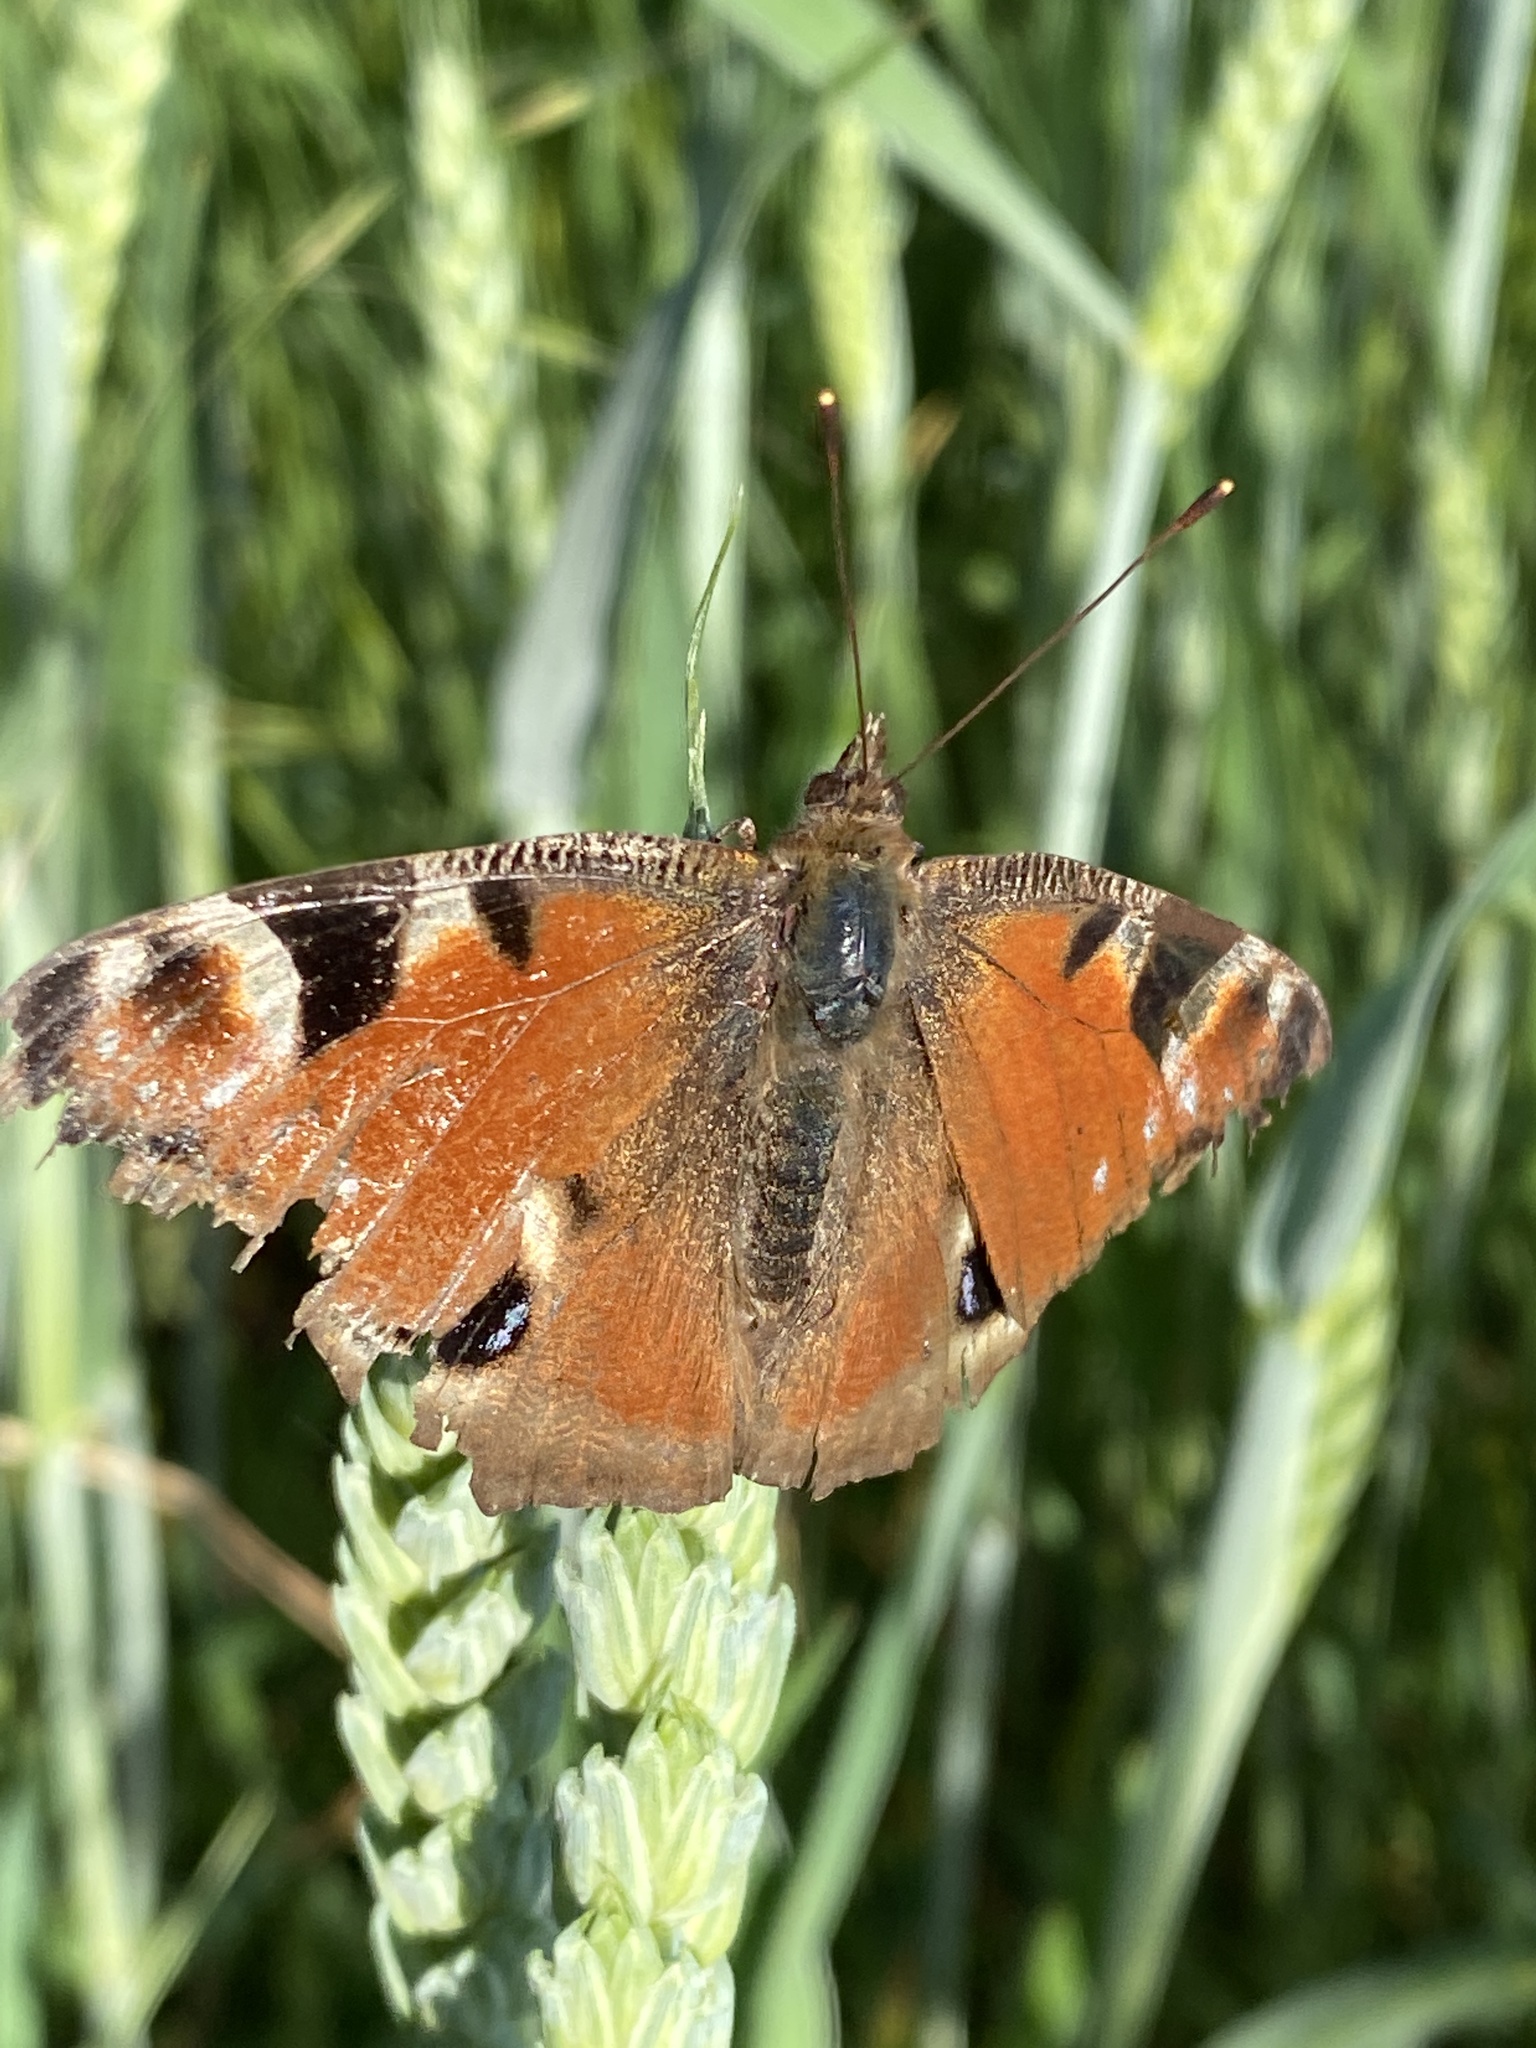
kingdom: Animalia
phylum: Arthropoda
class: Insecta
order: Lepidoptera
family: Nymphalidae
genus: Aglais
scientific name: Aglais io
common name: Peacock
